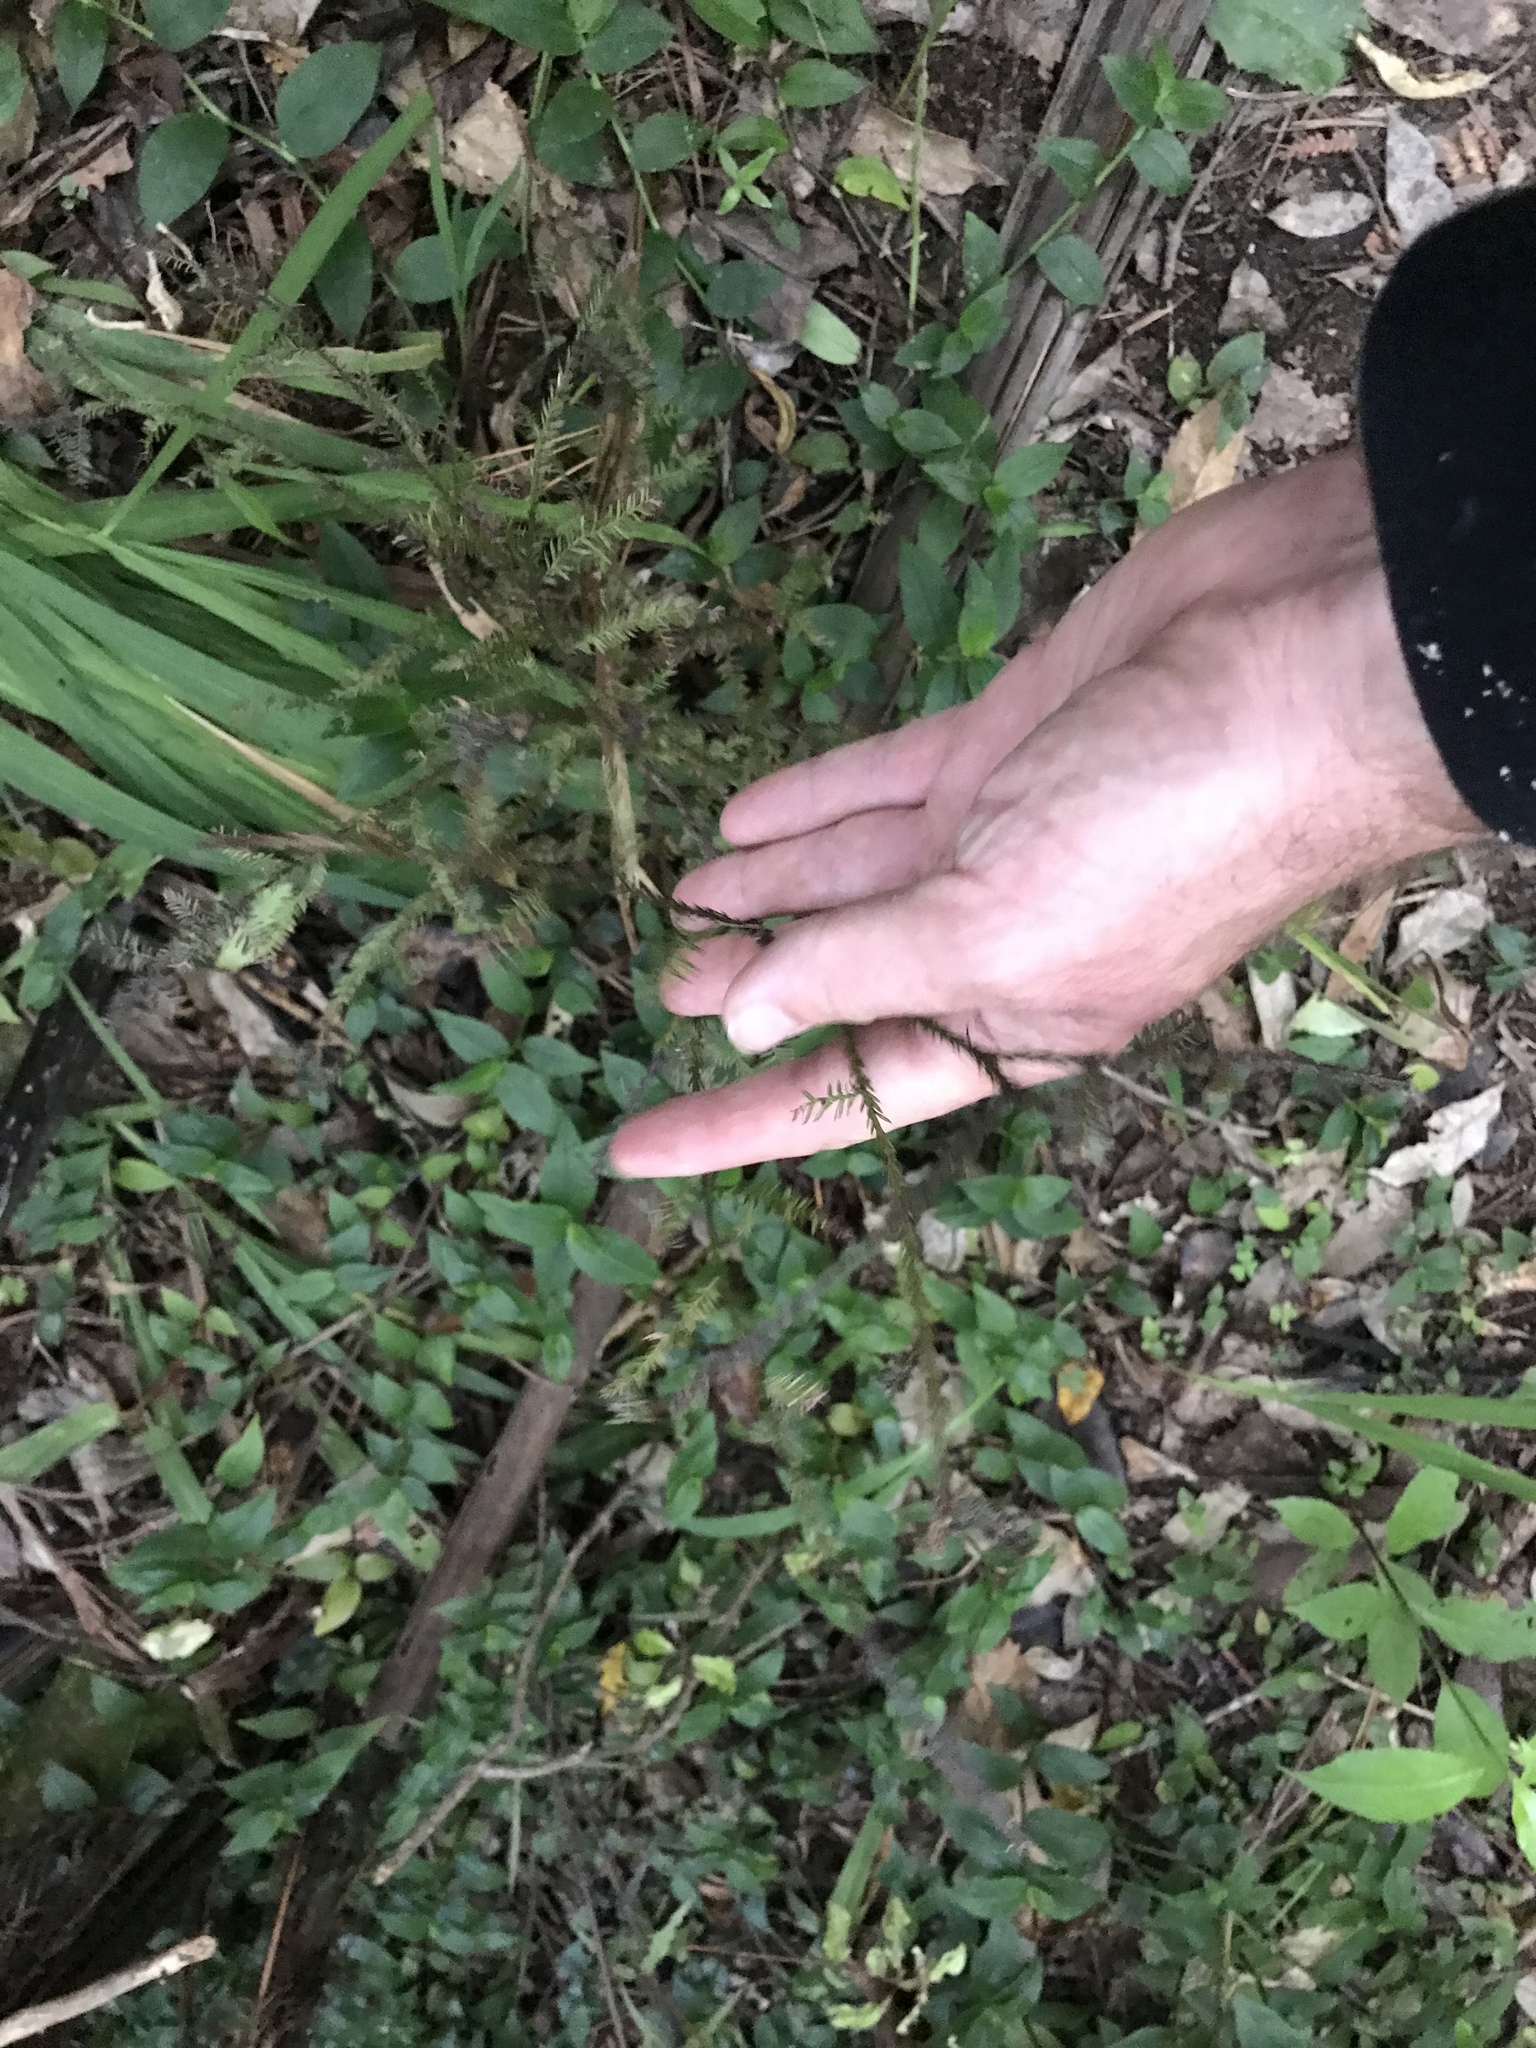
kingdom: Plantae
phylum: Tracheophyta
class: Pinopsida
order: Pinales
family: Podocarpaceae
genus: Dacrycarpus
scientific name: Dacrycarpus dacrydioides
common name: White pine
